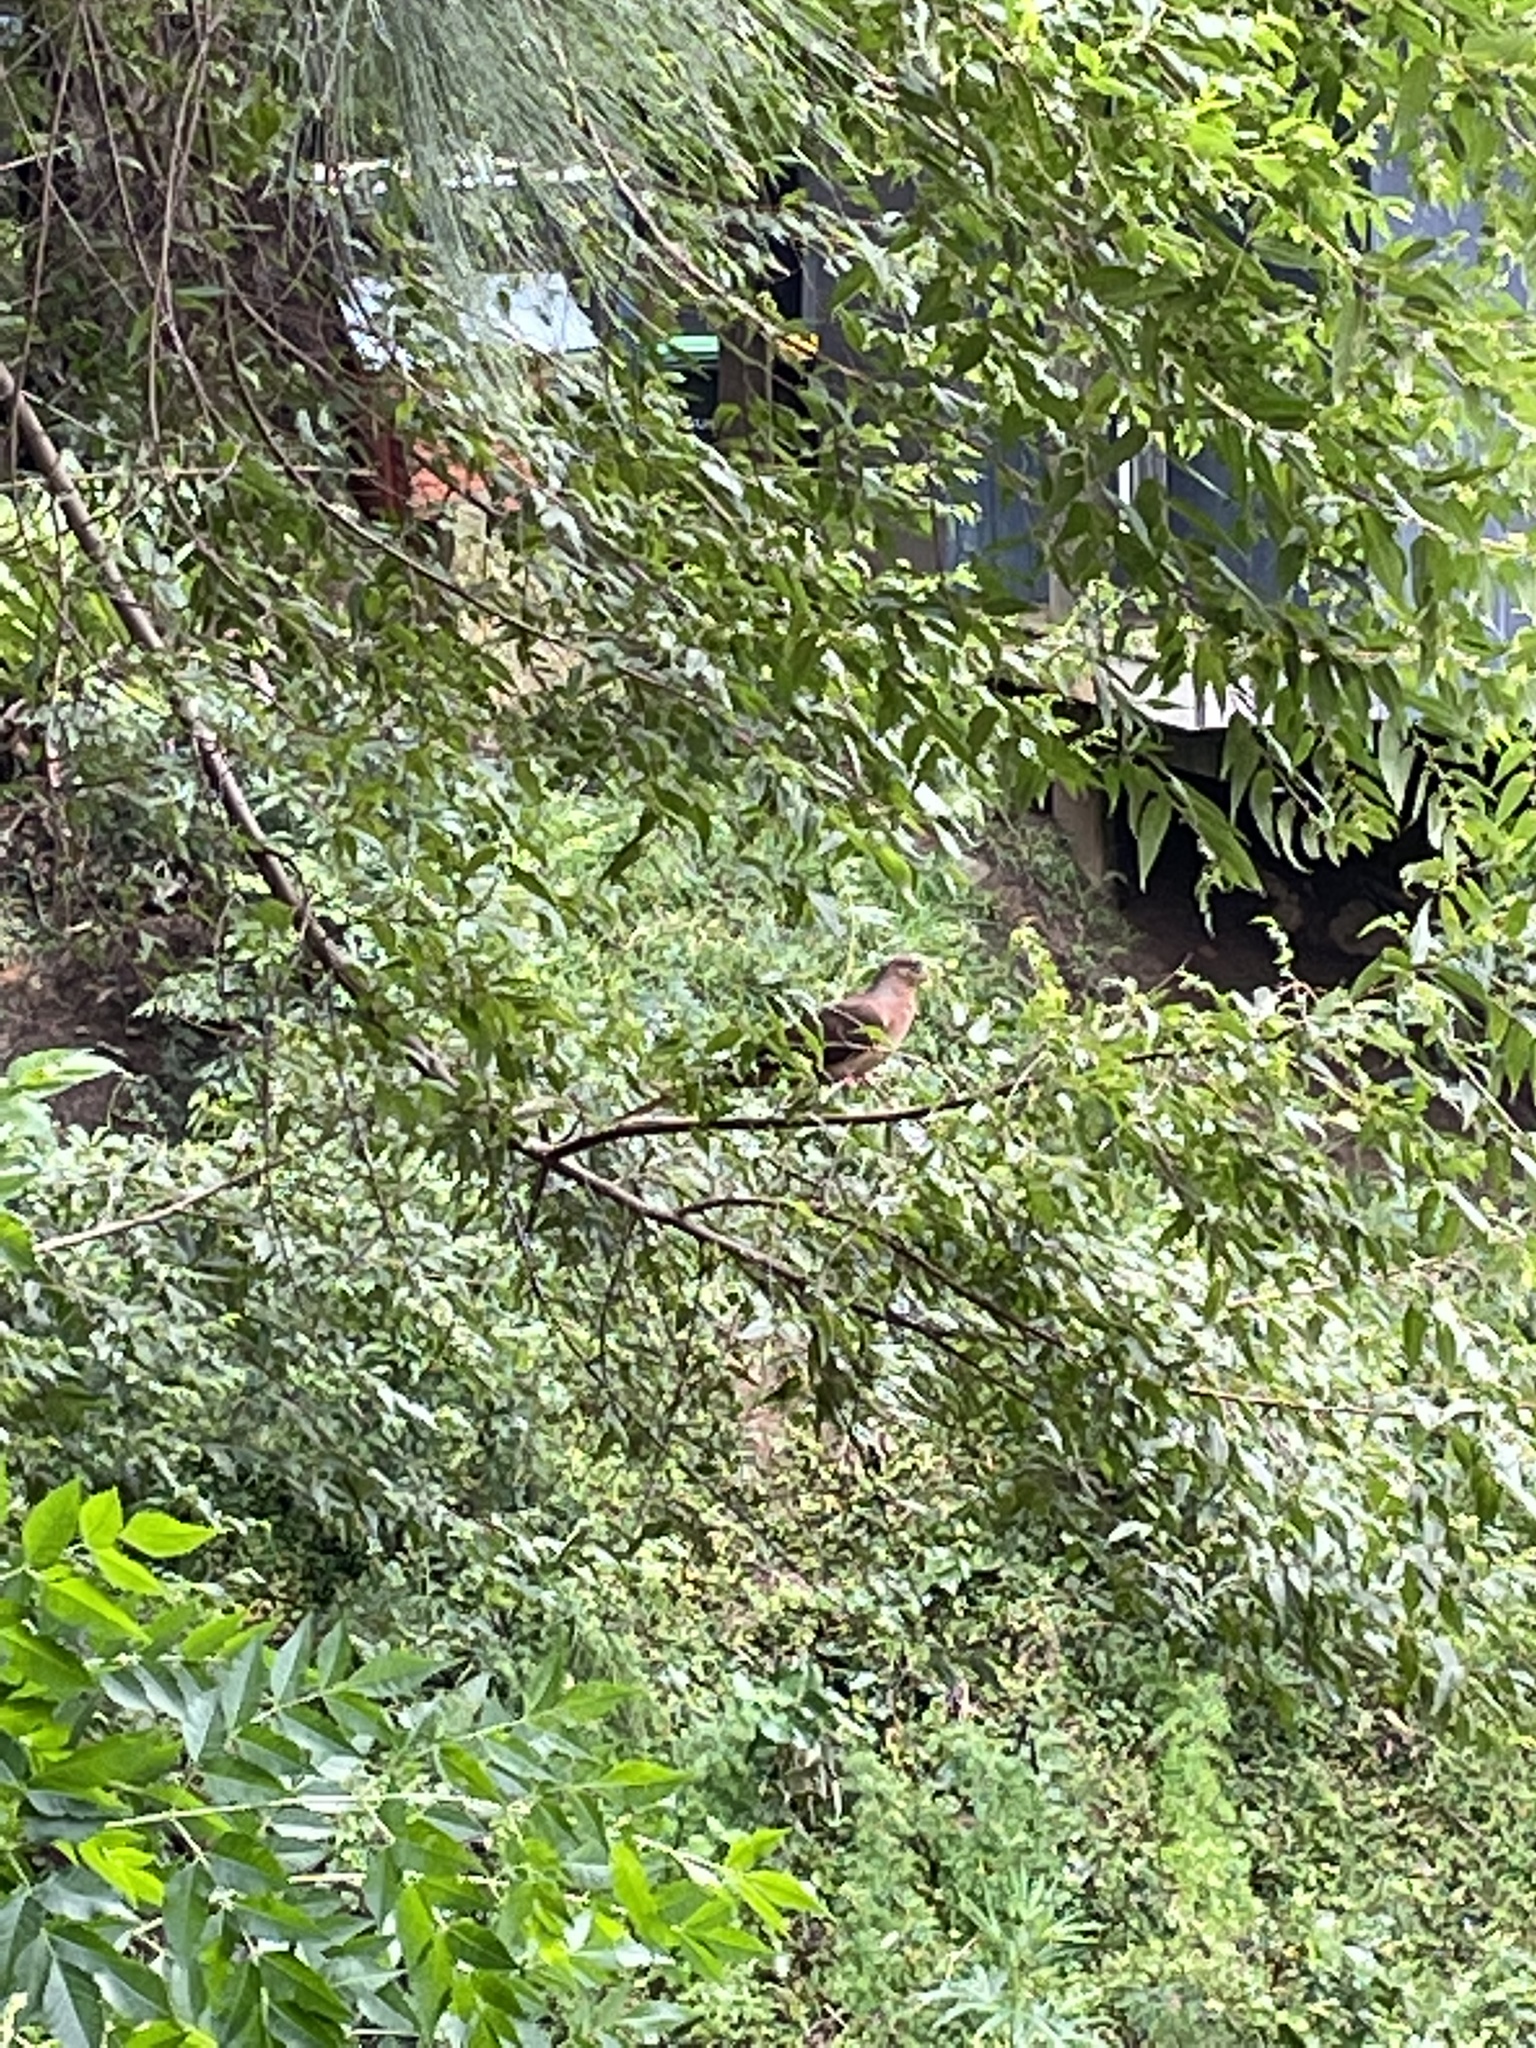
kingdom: Animalia
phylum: Chordata
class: Aves
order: Columbiformes
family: Columbidae
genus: Macropygia
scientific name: Macropygia phasianella
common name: Brown cuckoo-dove
